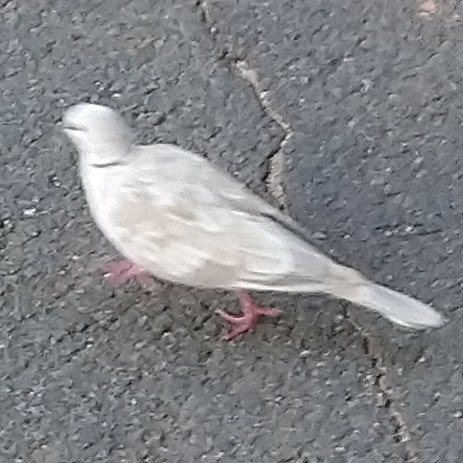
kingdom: Animalia
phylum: Chordata
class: Aves
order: Columbiformes
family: Columbidae
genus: Streptopelia
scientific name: Streptopelia roseogrisea
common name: African collared dove
